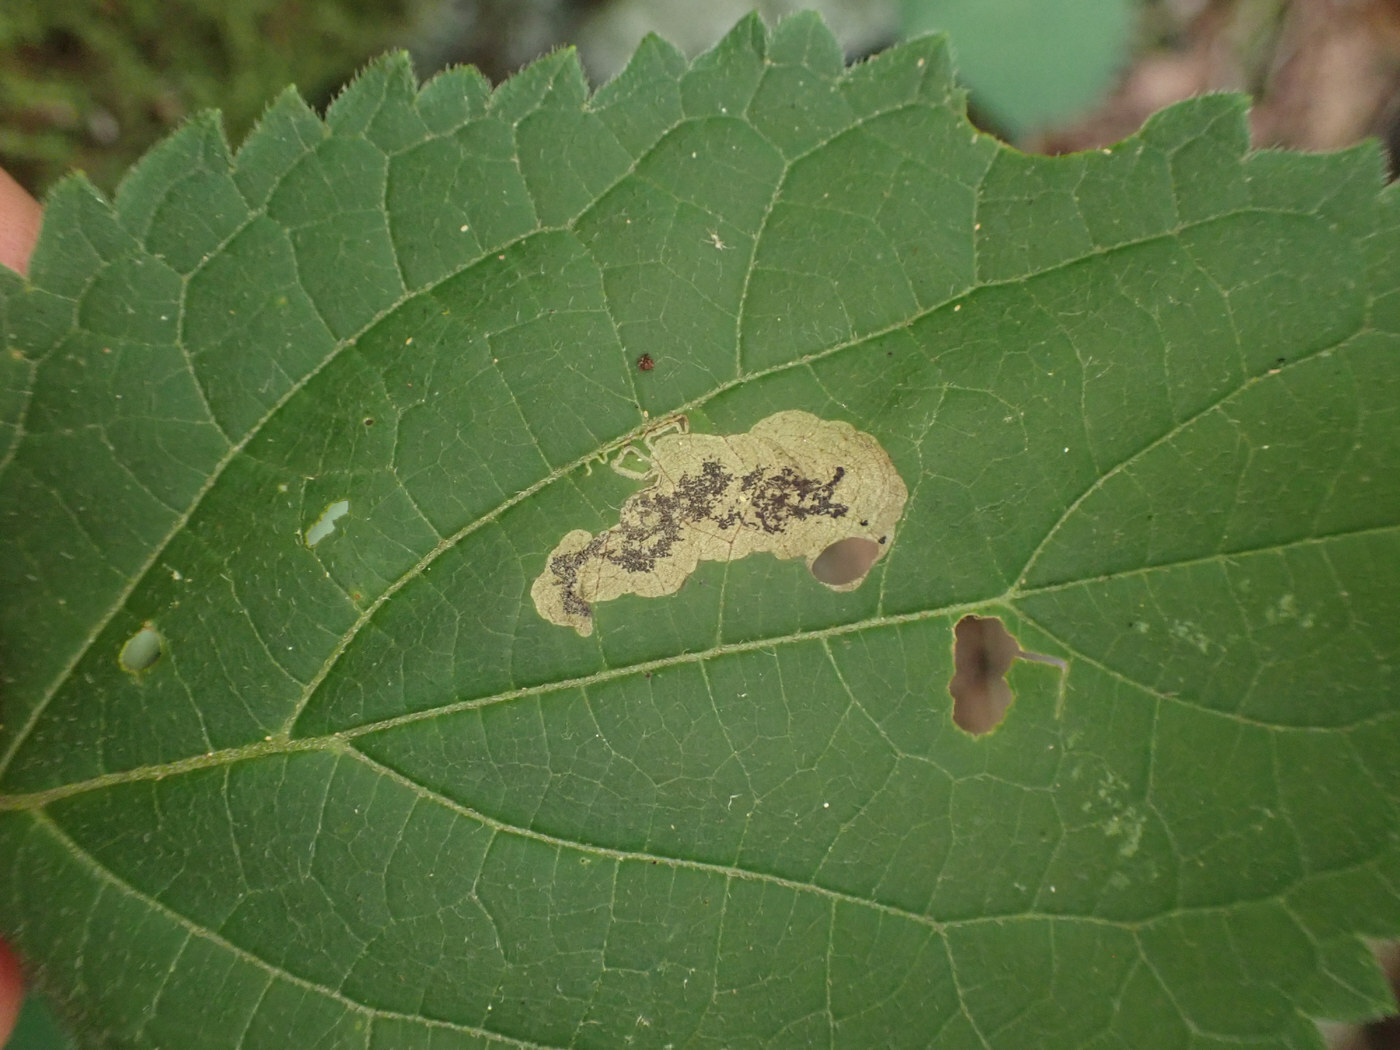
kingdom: Animalia
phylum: Arthropoda
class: Insecta
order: Lepidoptera
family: Heliozelidae
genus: Aspilanta
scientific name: Aspilanta hydrangaeella
